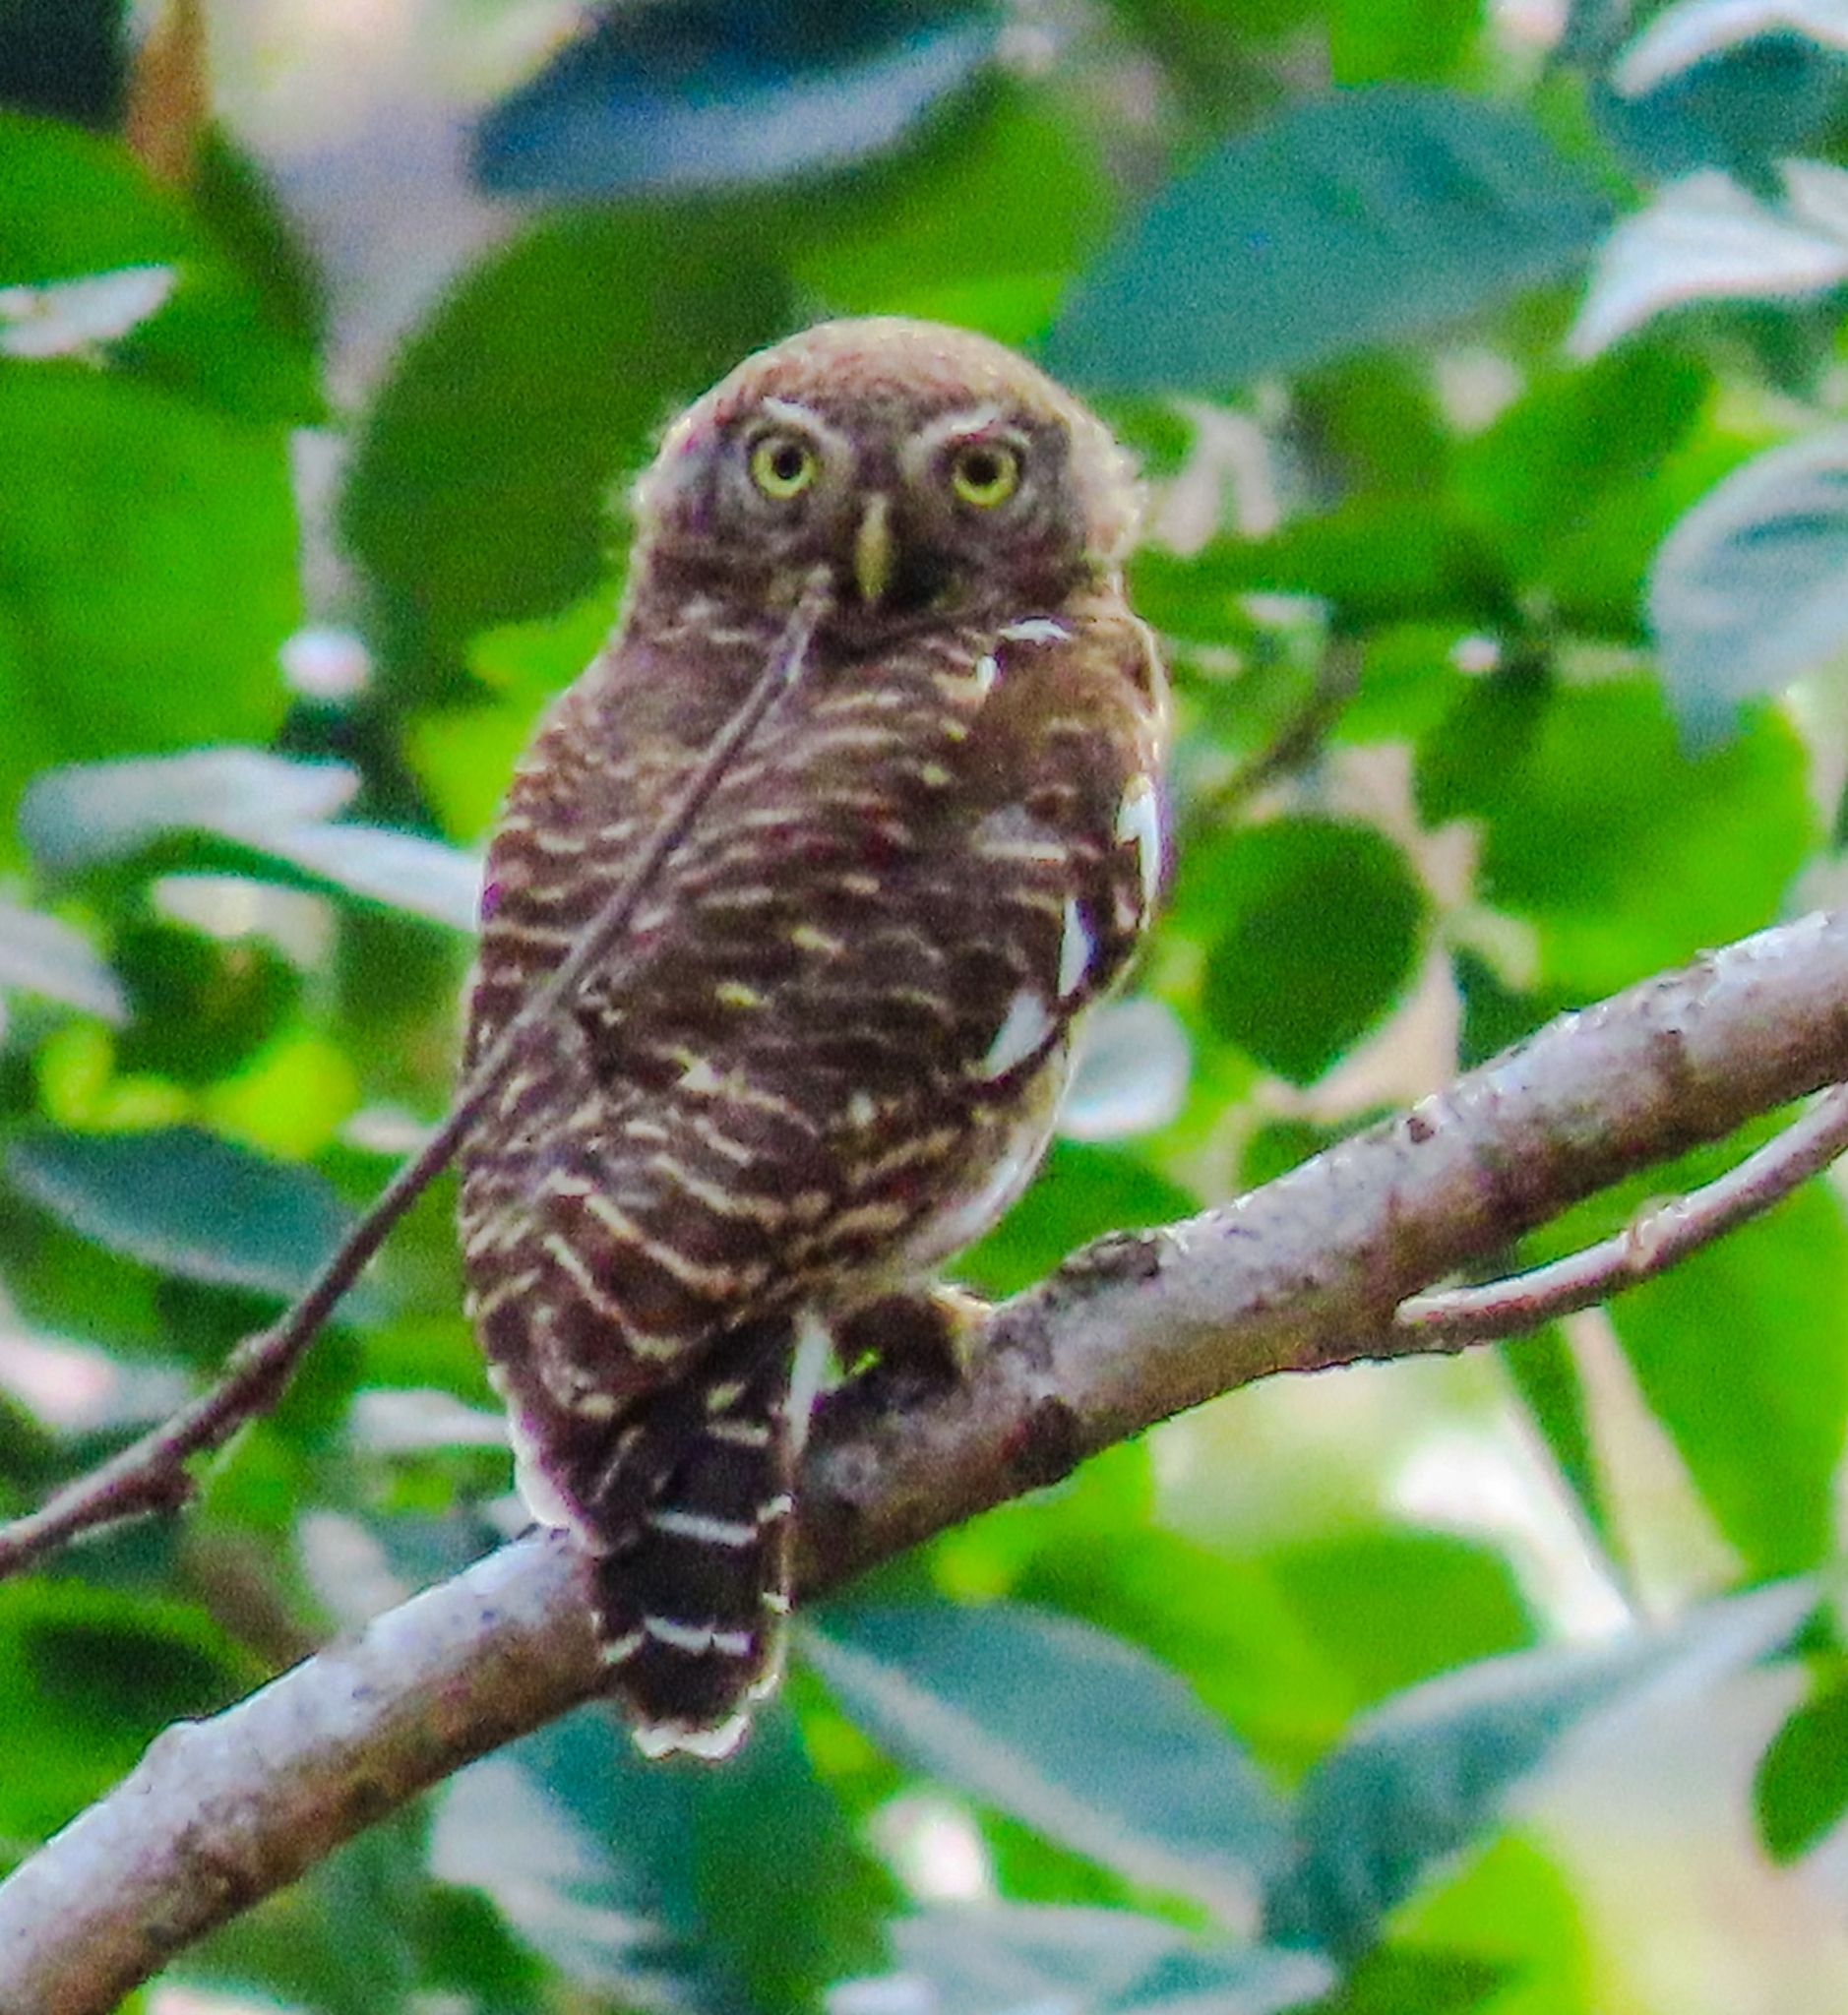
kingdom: Animalia
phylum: Chordata
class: Aves
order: Strigiformes
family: Strigidae
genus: Glaucidium
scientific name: Glaucidium cuculoides
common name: Asian barred owlet
